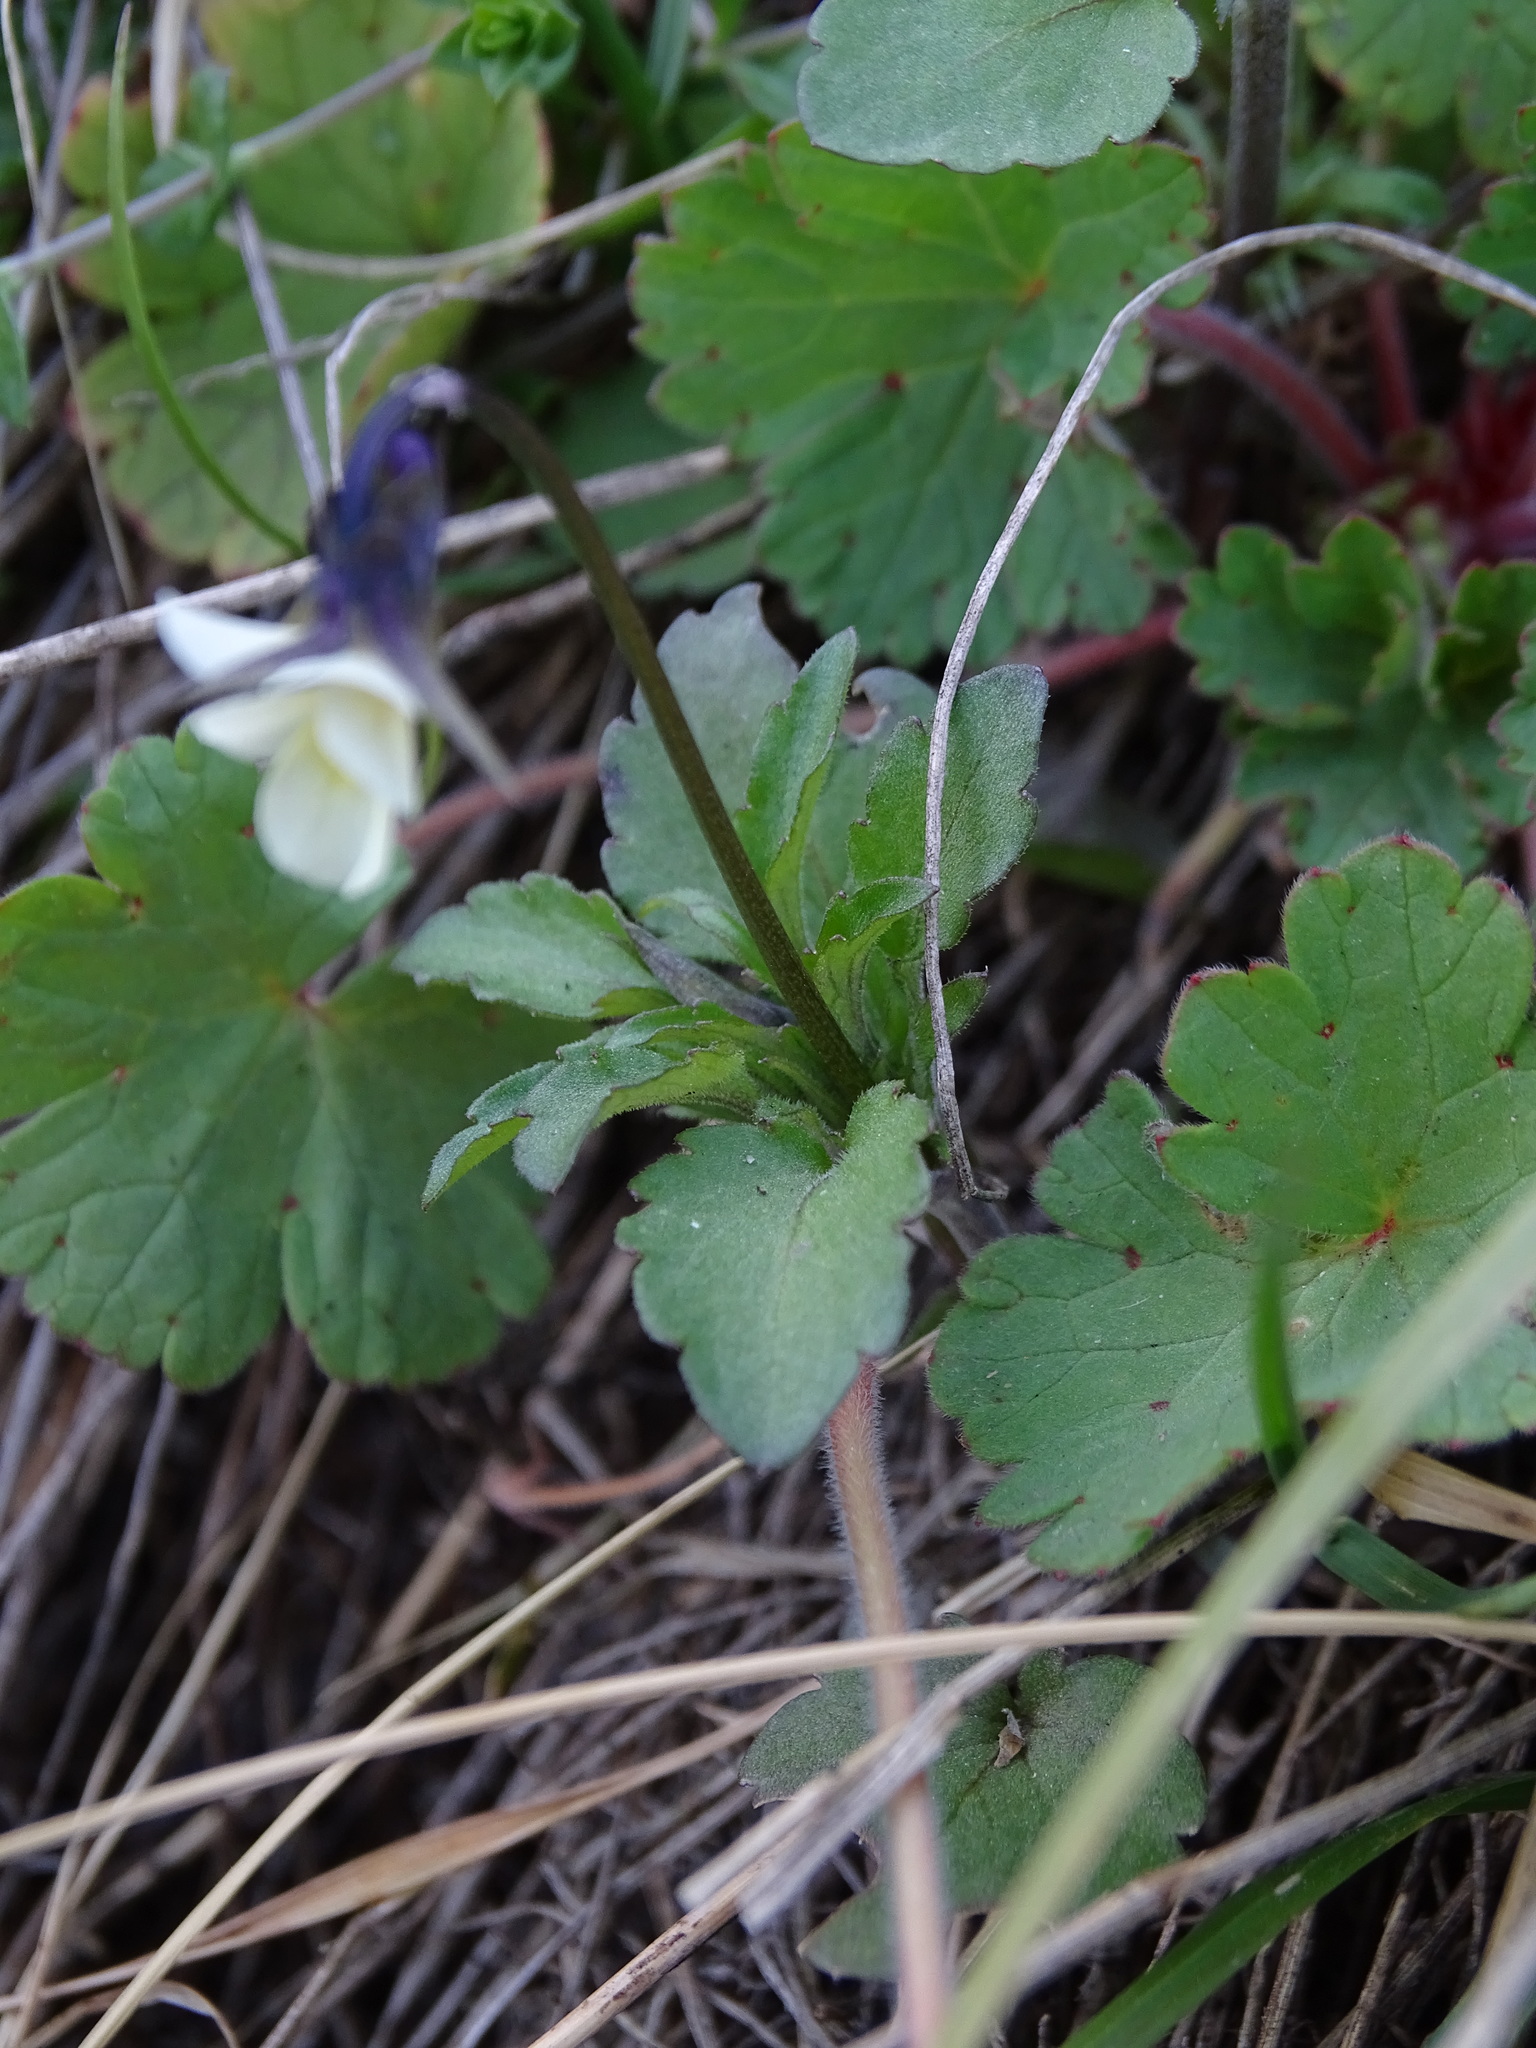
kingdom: Plantae
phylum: Tracheophyta
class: Magnoliopsida
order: Malpighiales
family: Violaceae
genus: Viola
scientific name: Viola arvensis
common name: Field pansy
